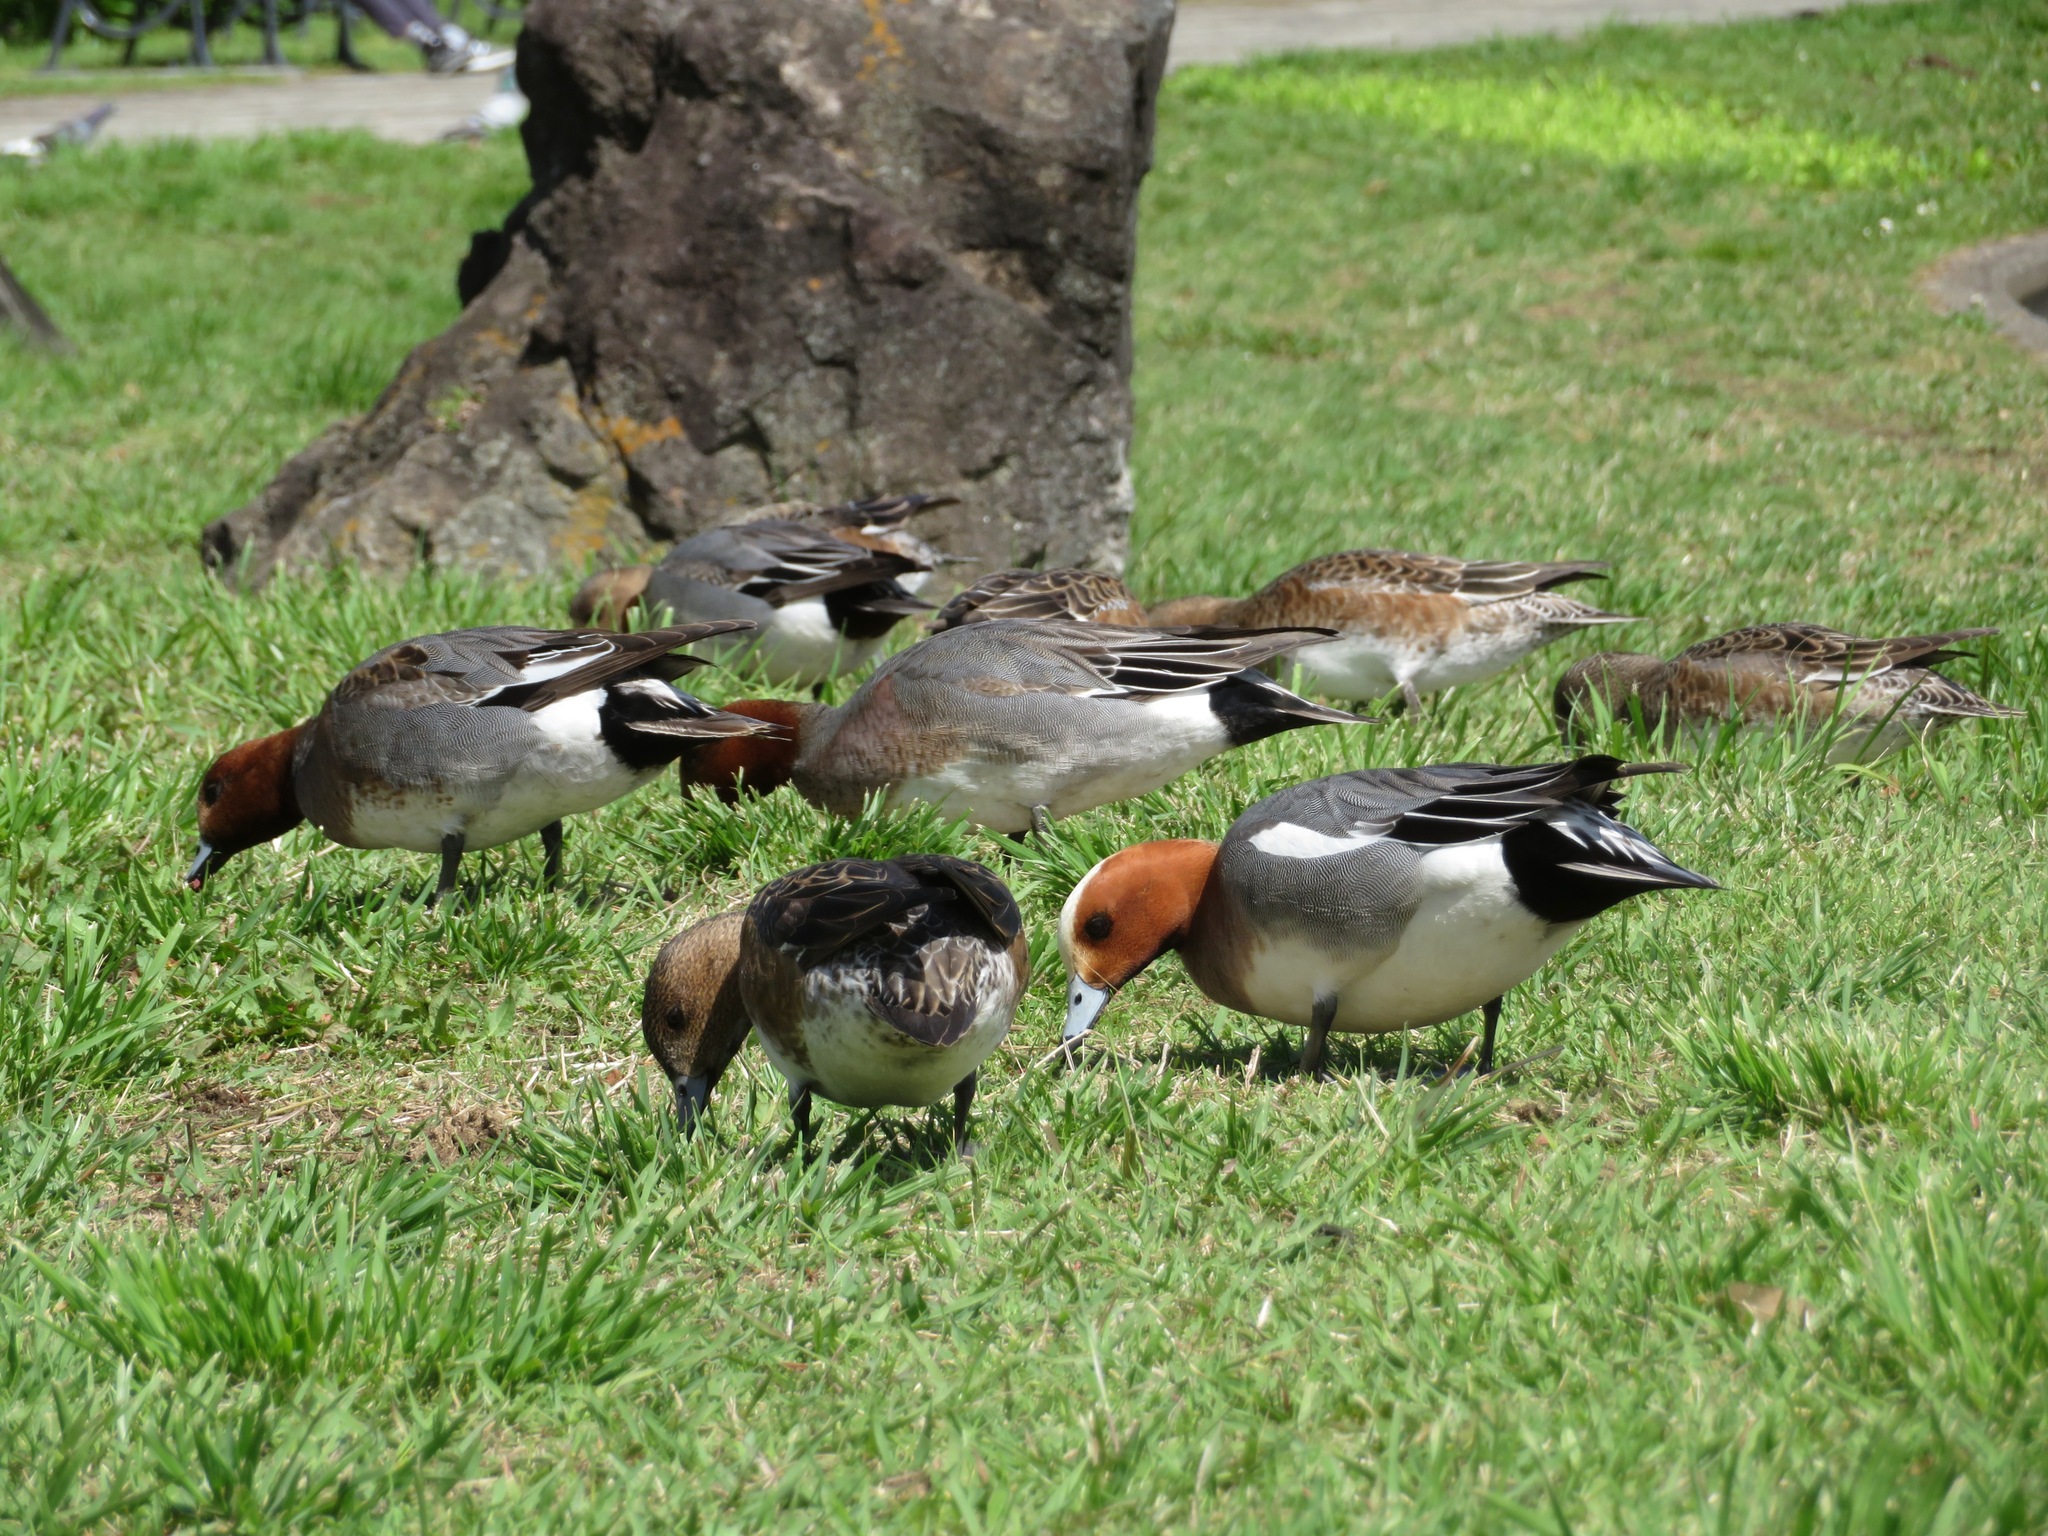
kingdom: Animalia
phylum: Chordata
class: Aves
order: Anseriformes
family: Anatidae
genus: Mareca
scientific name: Mareca penelope
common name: Eurasian wigeon
